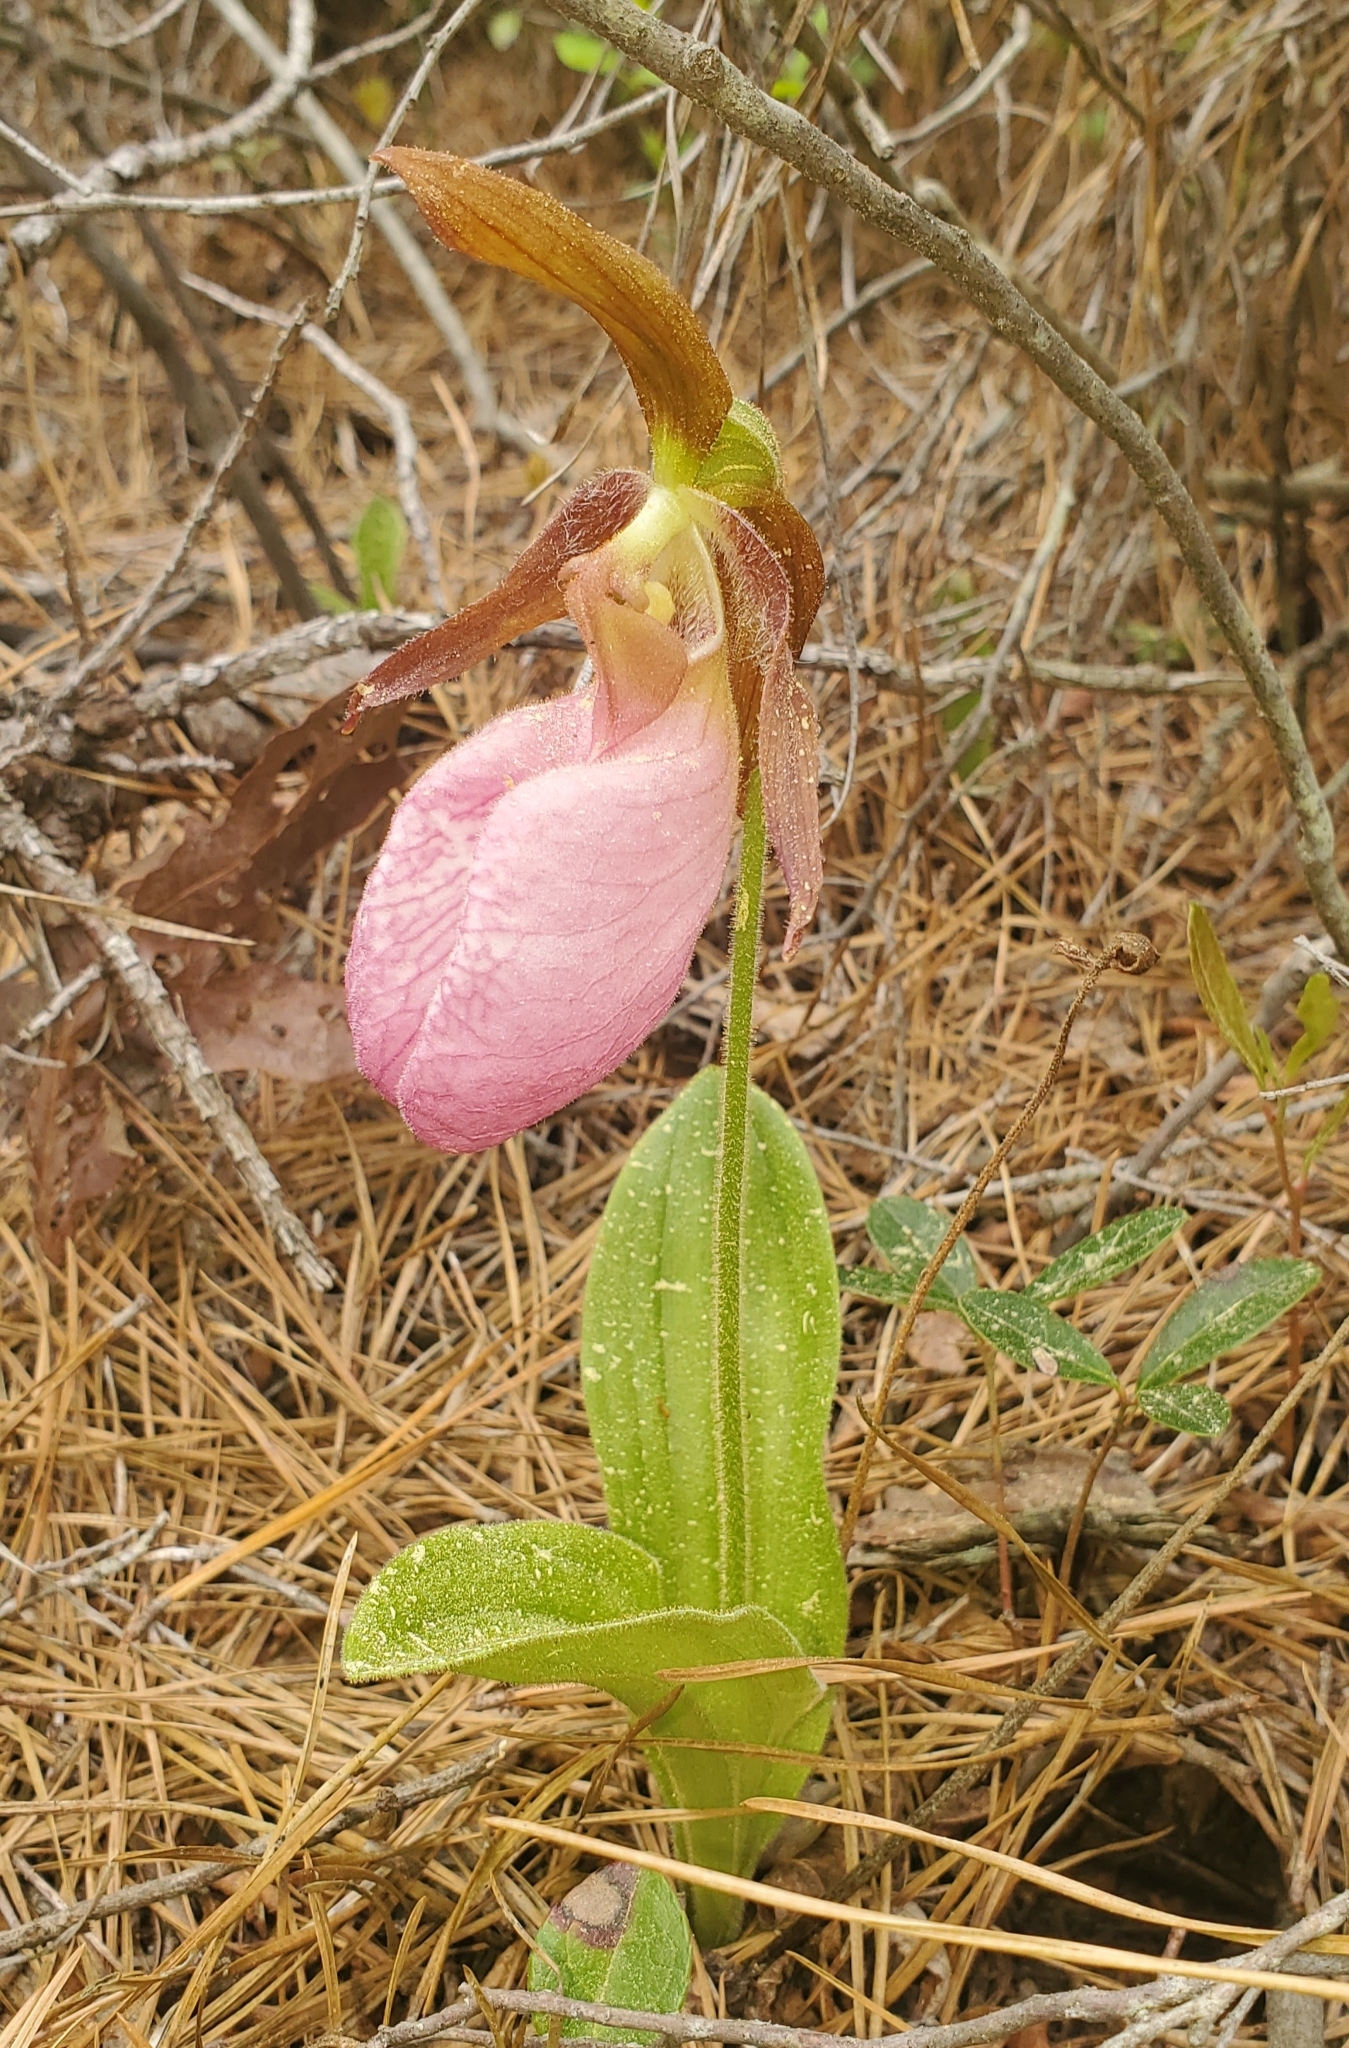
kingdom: Plantae
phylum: Tracheophyta
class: Liliopsida
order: Asparagales
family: Orchidaceae
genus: Cypripedium
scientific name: Cypripedium acaule
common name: Pink lady's-slipper
